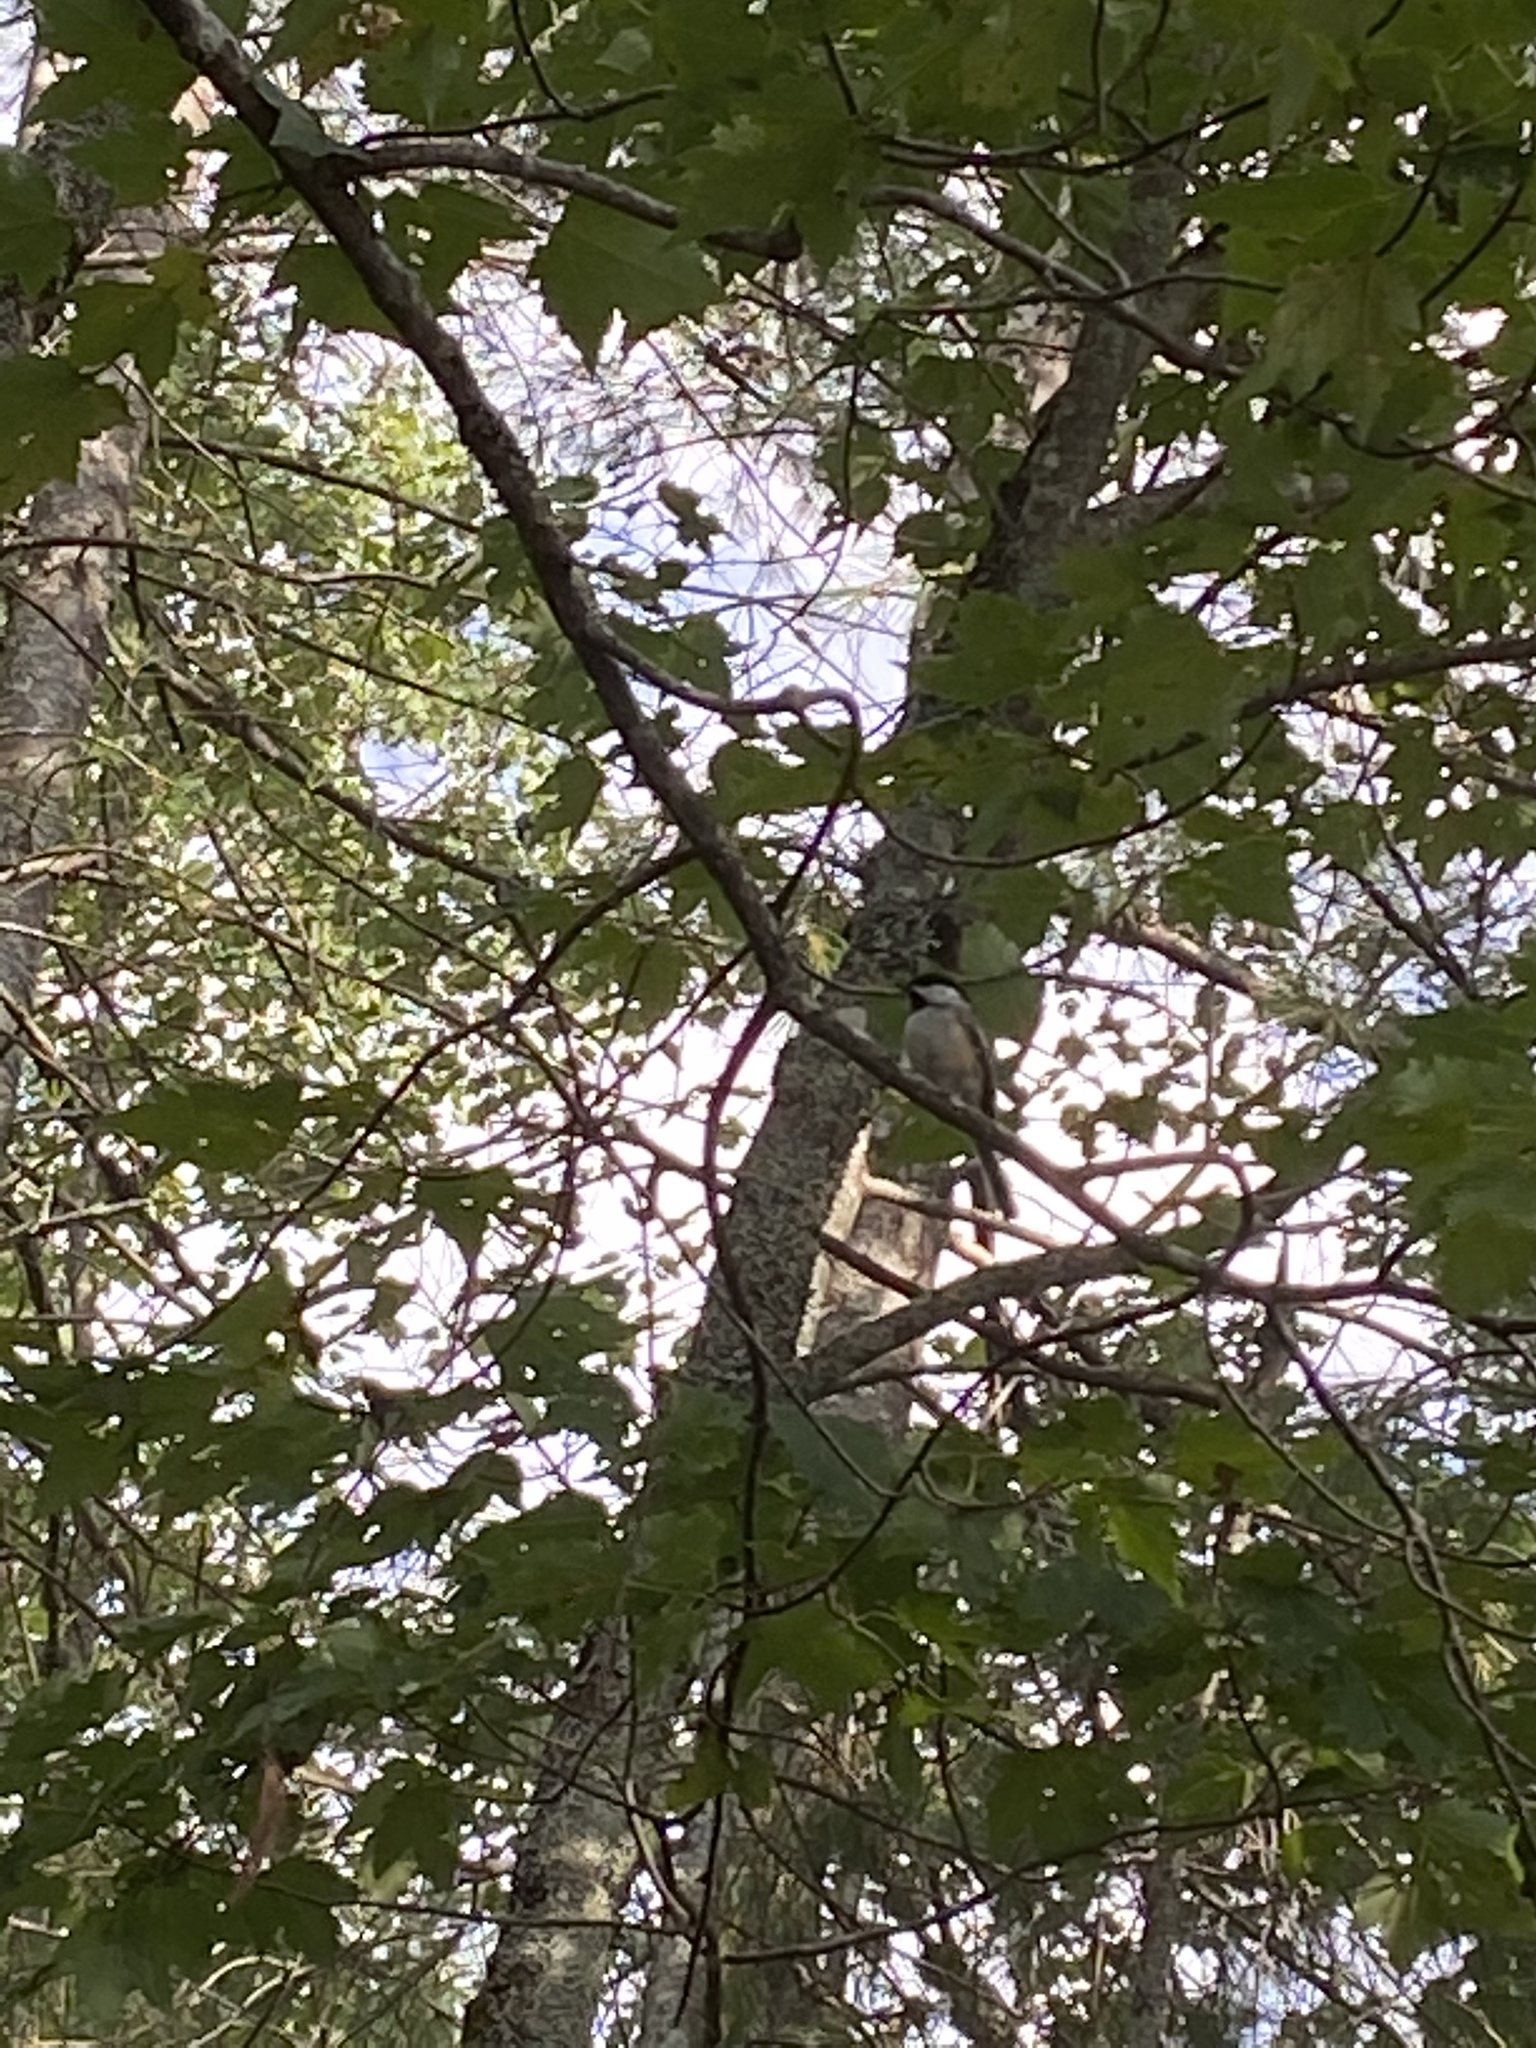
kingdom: Animalia
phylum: Chordata
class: Aves
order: Passeriformes
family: Paridae
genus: Poecile
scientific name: Poecile atricapillus
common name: Black-capped chickadee
